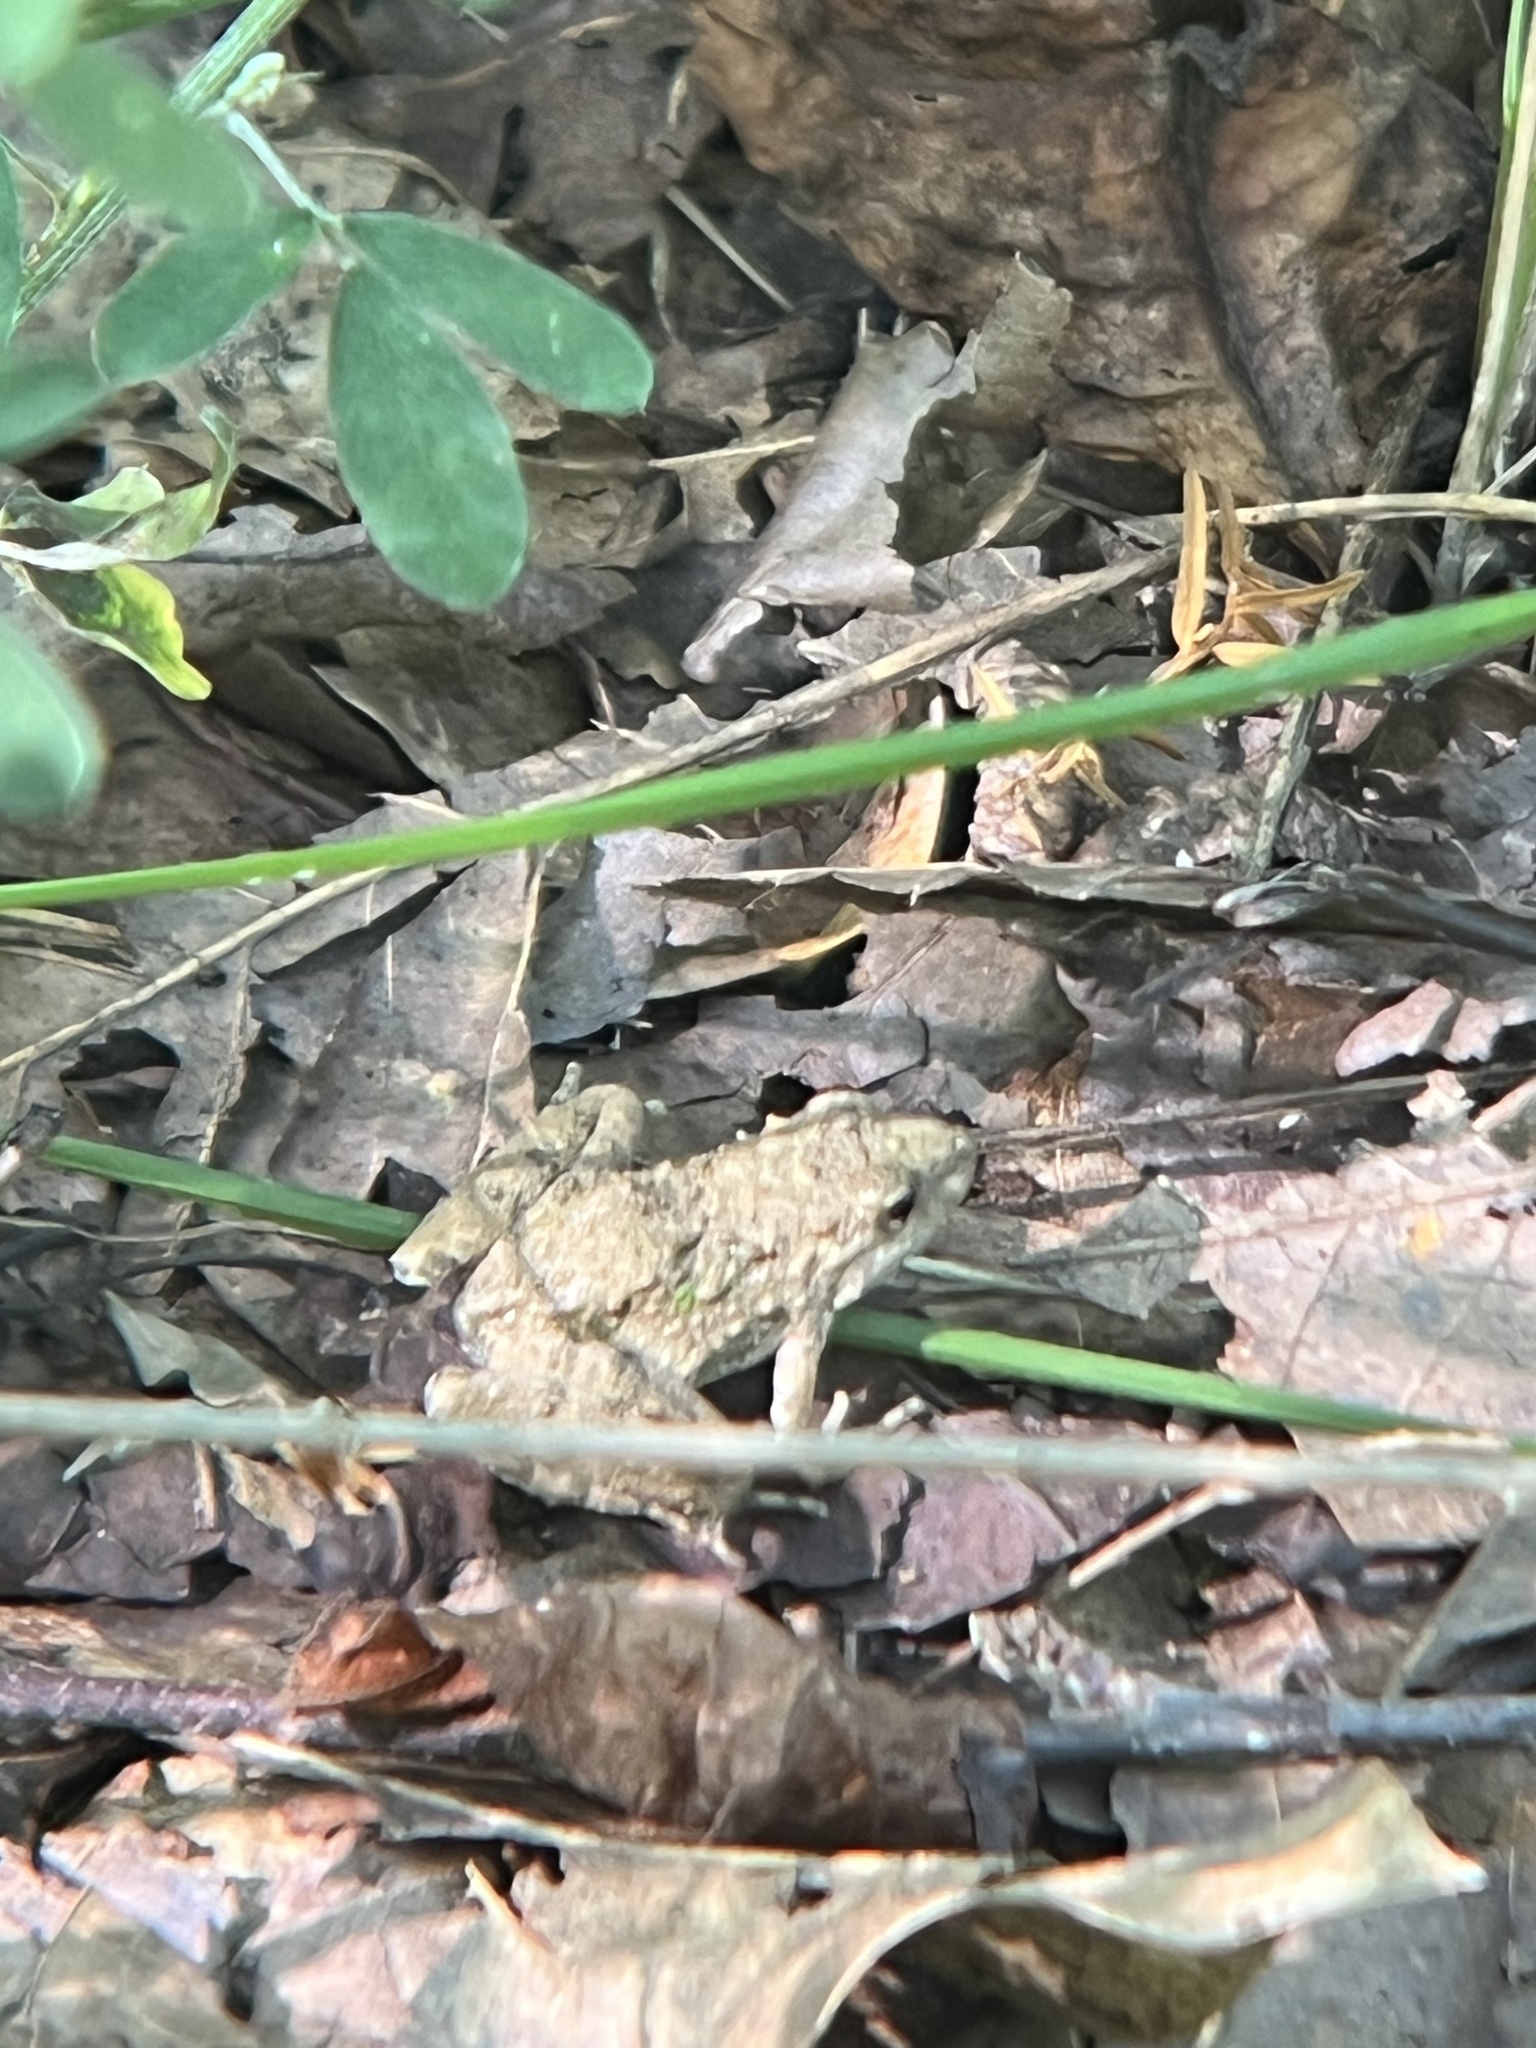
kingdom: Animalia
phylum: Chordata
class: Amphibia
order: Anura
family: Hylidae
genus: Acris
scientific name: Acris blanchardi
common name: Blanchard's cricket frog
